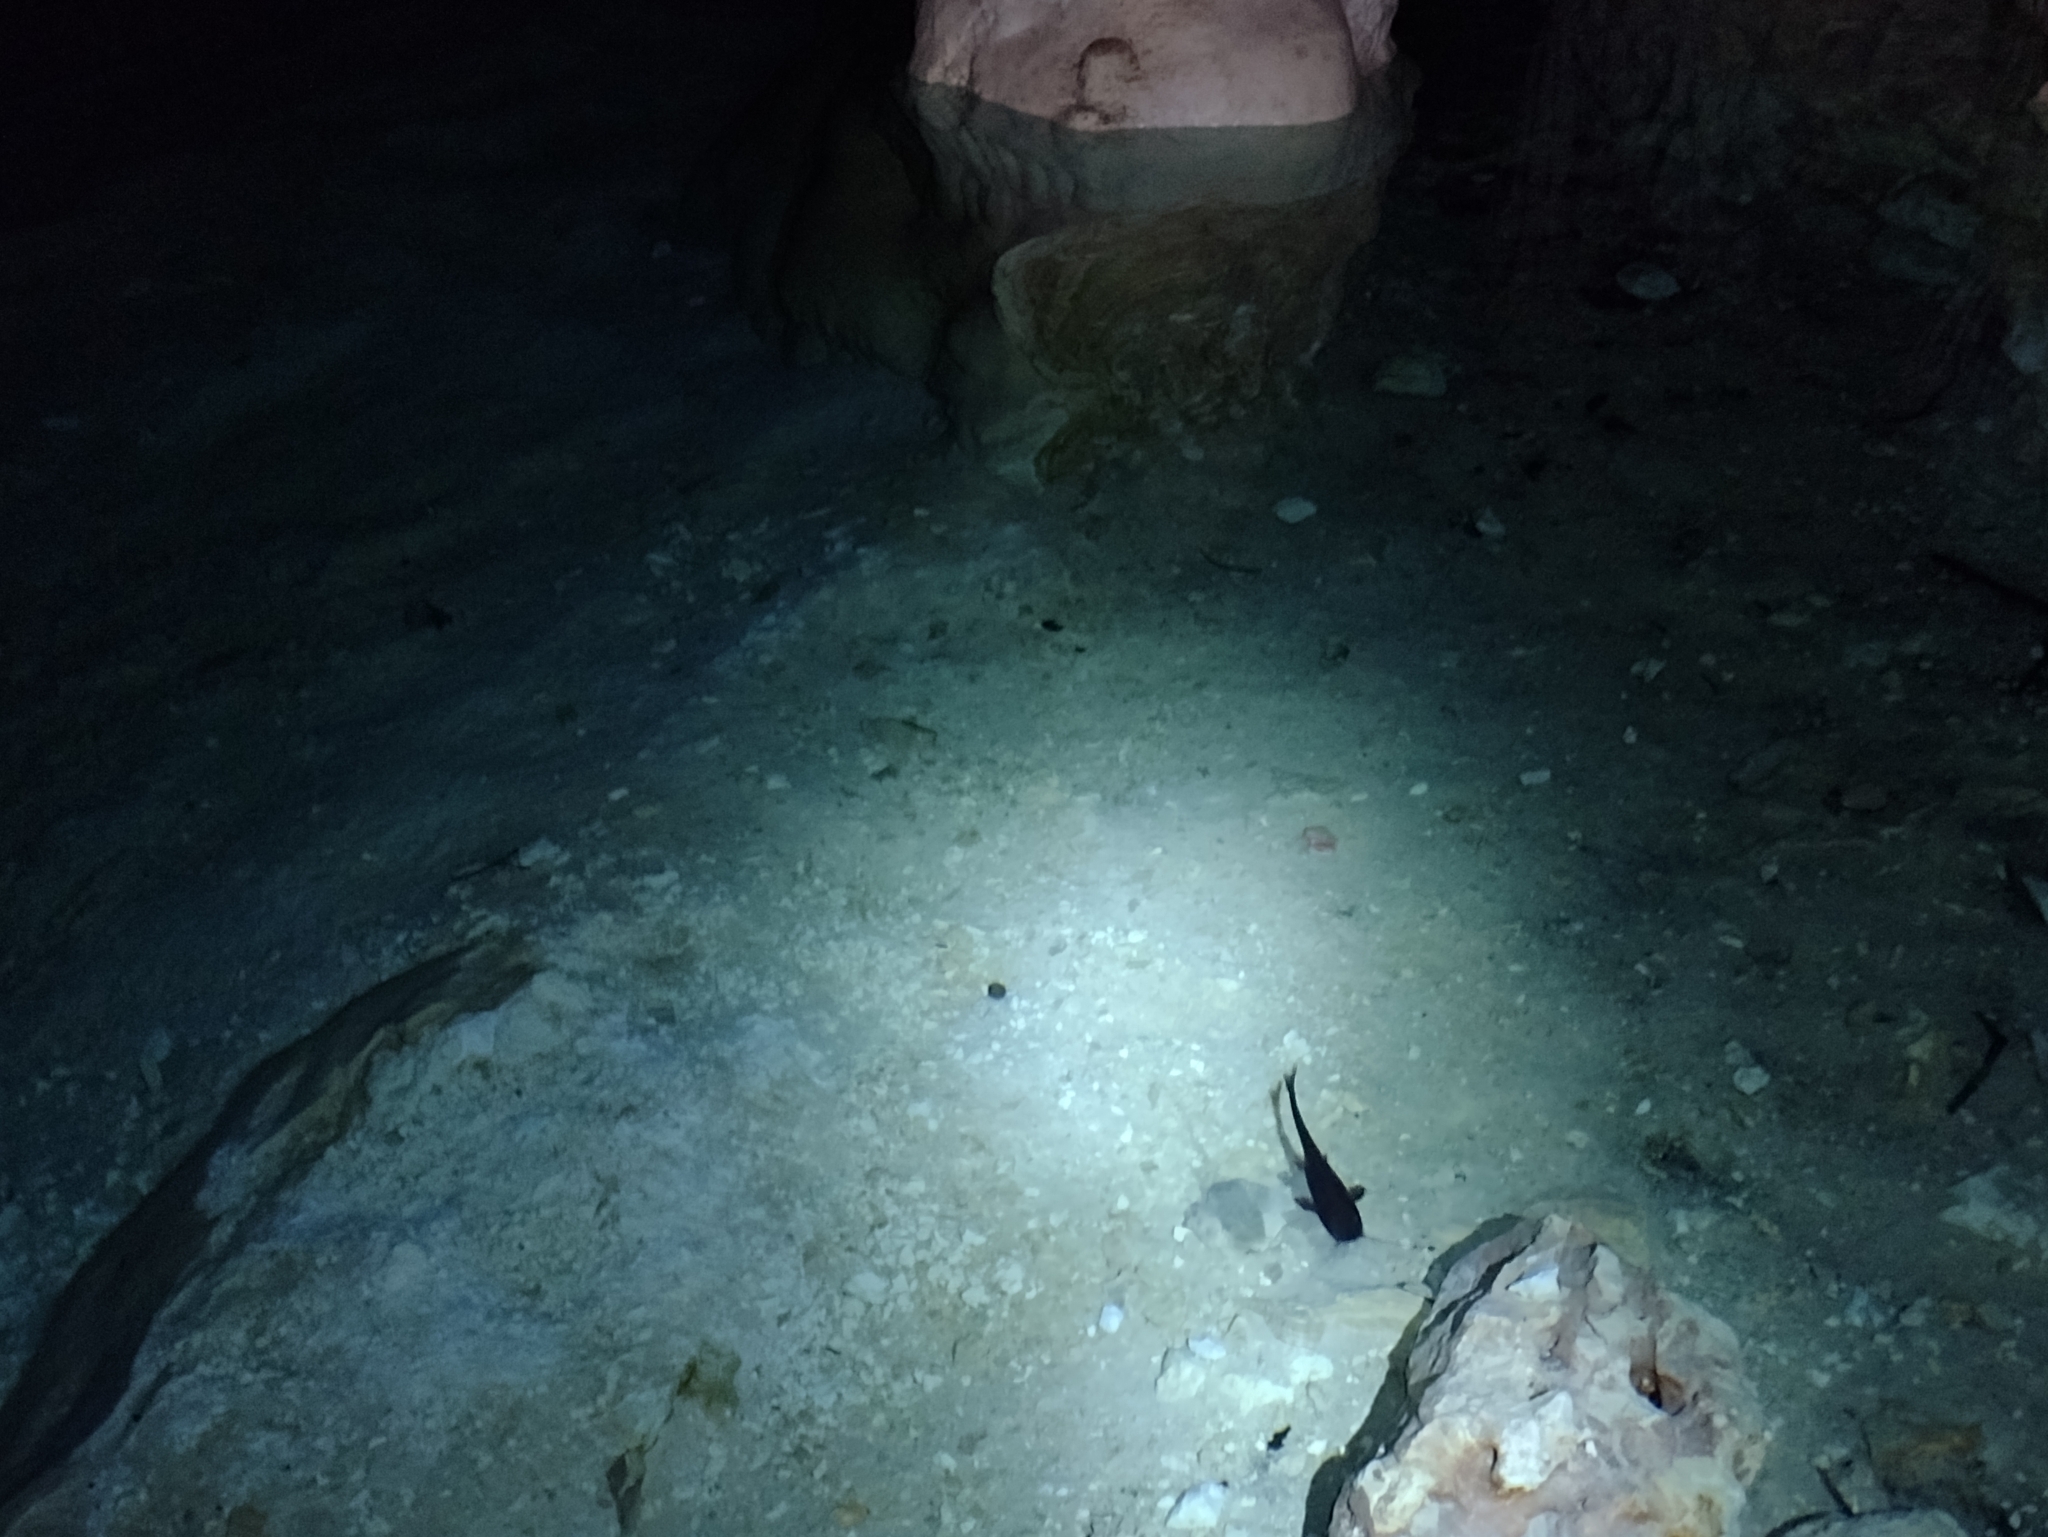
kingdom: Animalia
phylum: Chordata
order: Siluriformes
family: Heptapteridae
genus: Rhamdia
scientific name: Rhamdia guatemalensis
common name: Pale catfish
